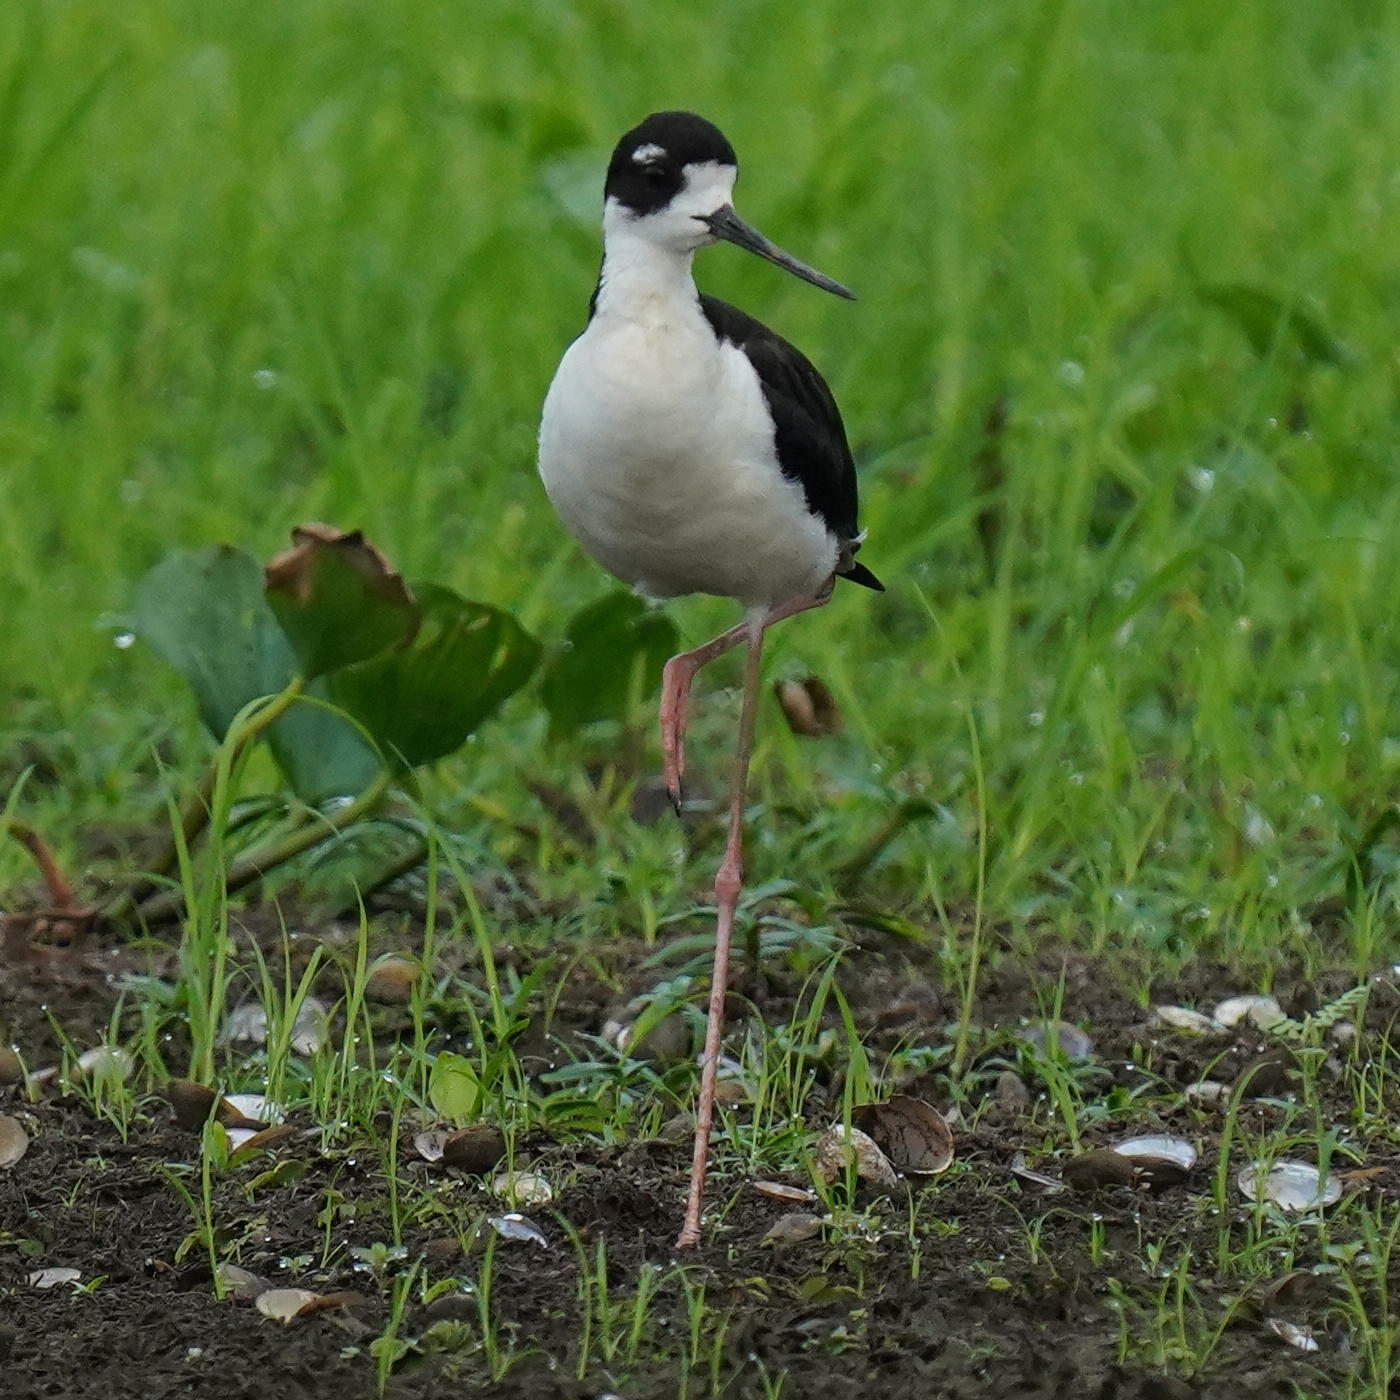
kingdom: Animalia
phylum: Chordata
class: Aves
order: Charadriiformes
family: Recurvirostridae
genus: Himantopus
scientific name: Himantopus mexicanus
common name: Black-necked stilt
